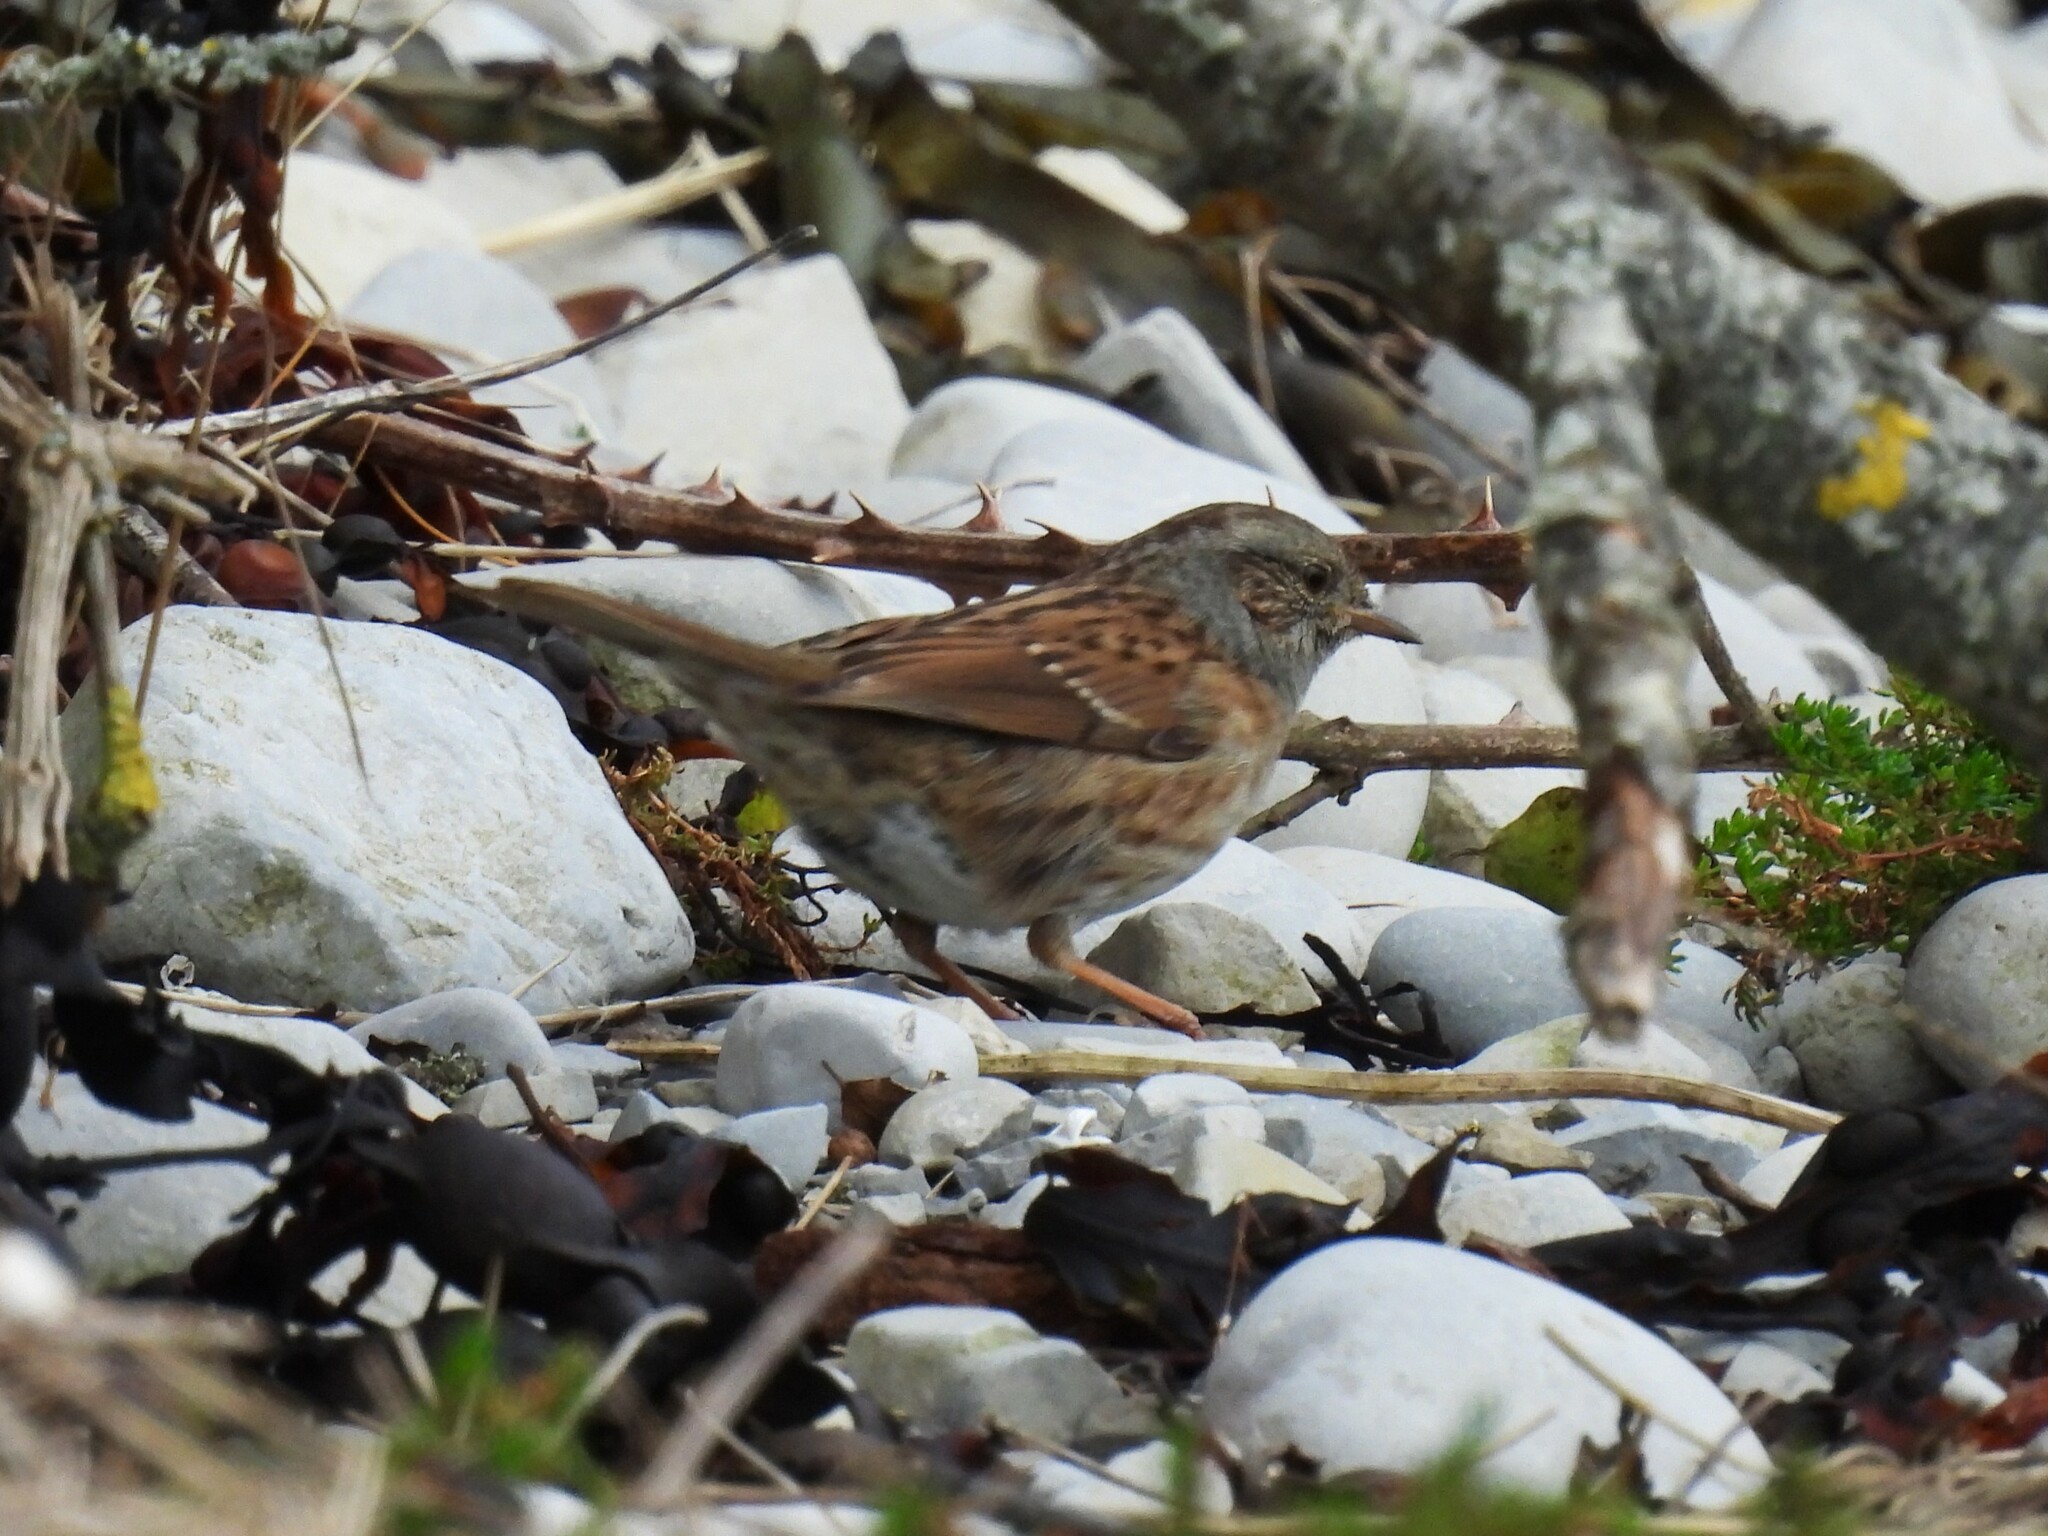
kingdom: Animalia
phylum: Chordata
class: Aves
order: Passeriformes
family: Prunellidae
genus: Prunella
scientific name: Prunella modularis
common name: Dunnock
